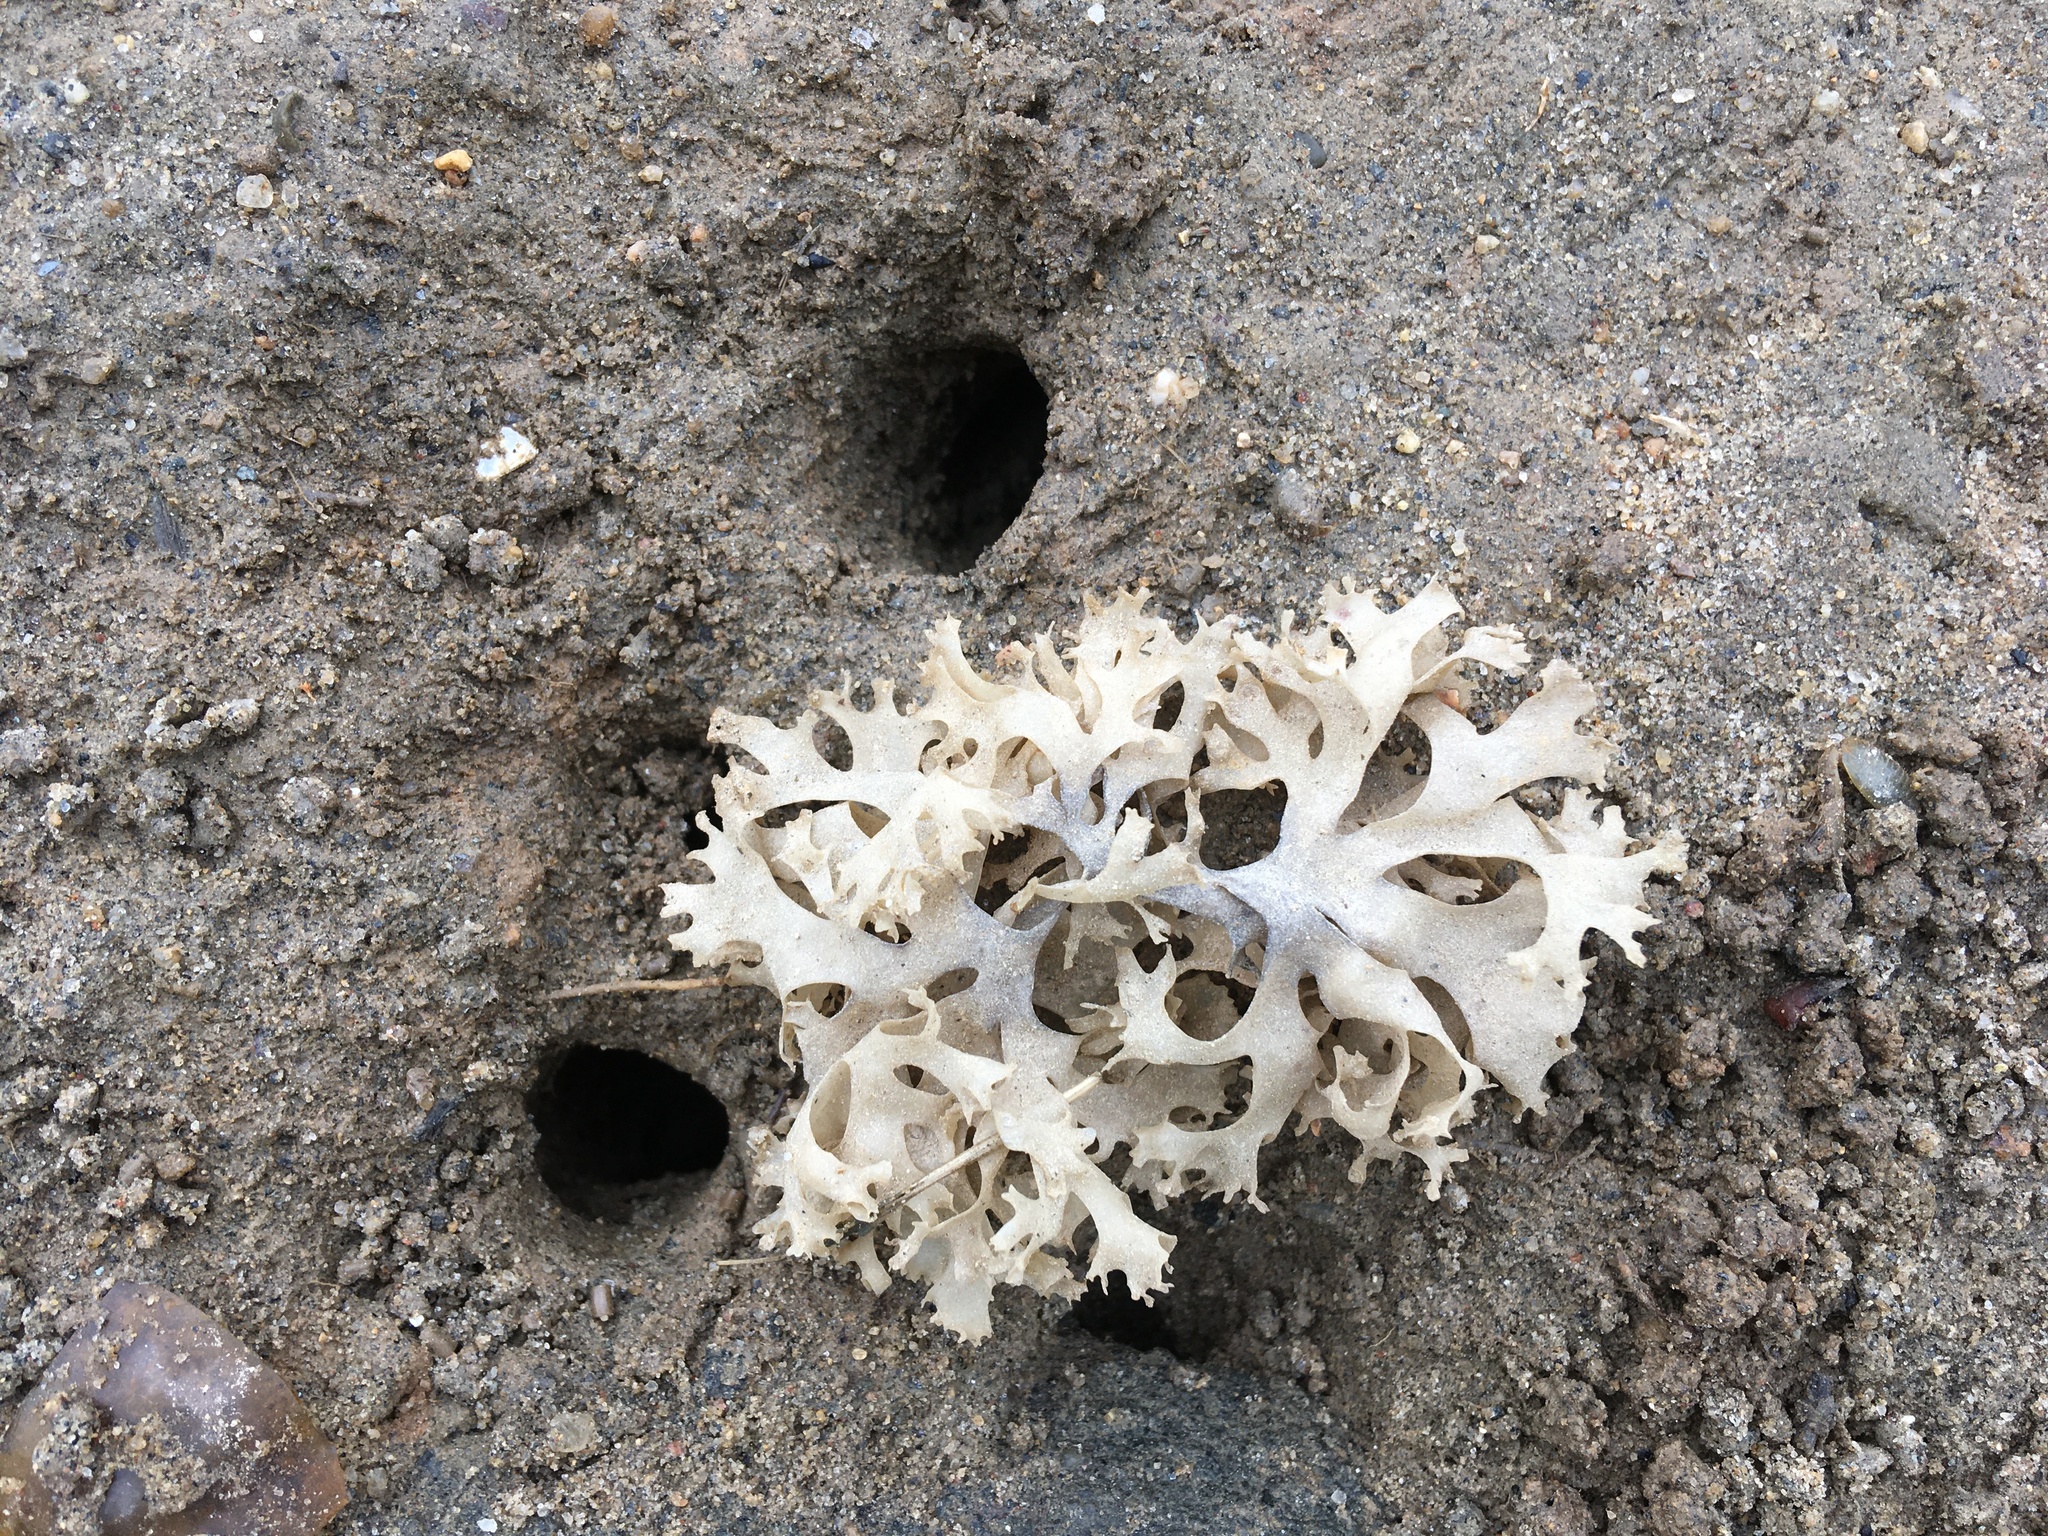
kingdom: Plantae
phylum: Rhodophyta
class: Florideophyceae
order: Gigartinales
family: Gigartinaceae
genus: Chondrus
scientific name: Chondrus crispus
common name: Carrageen
